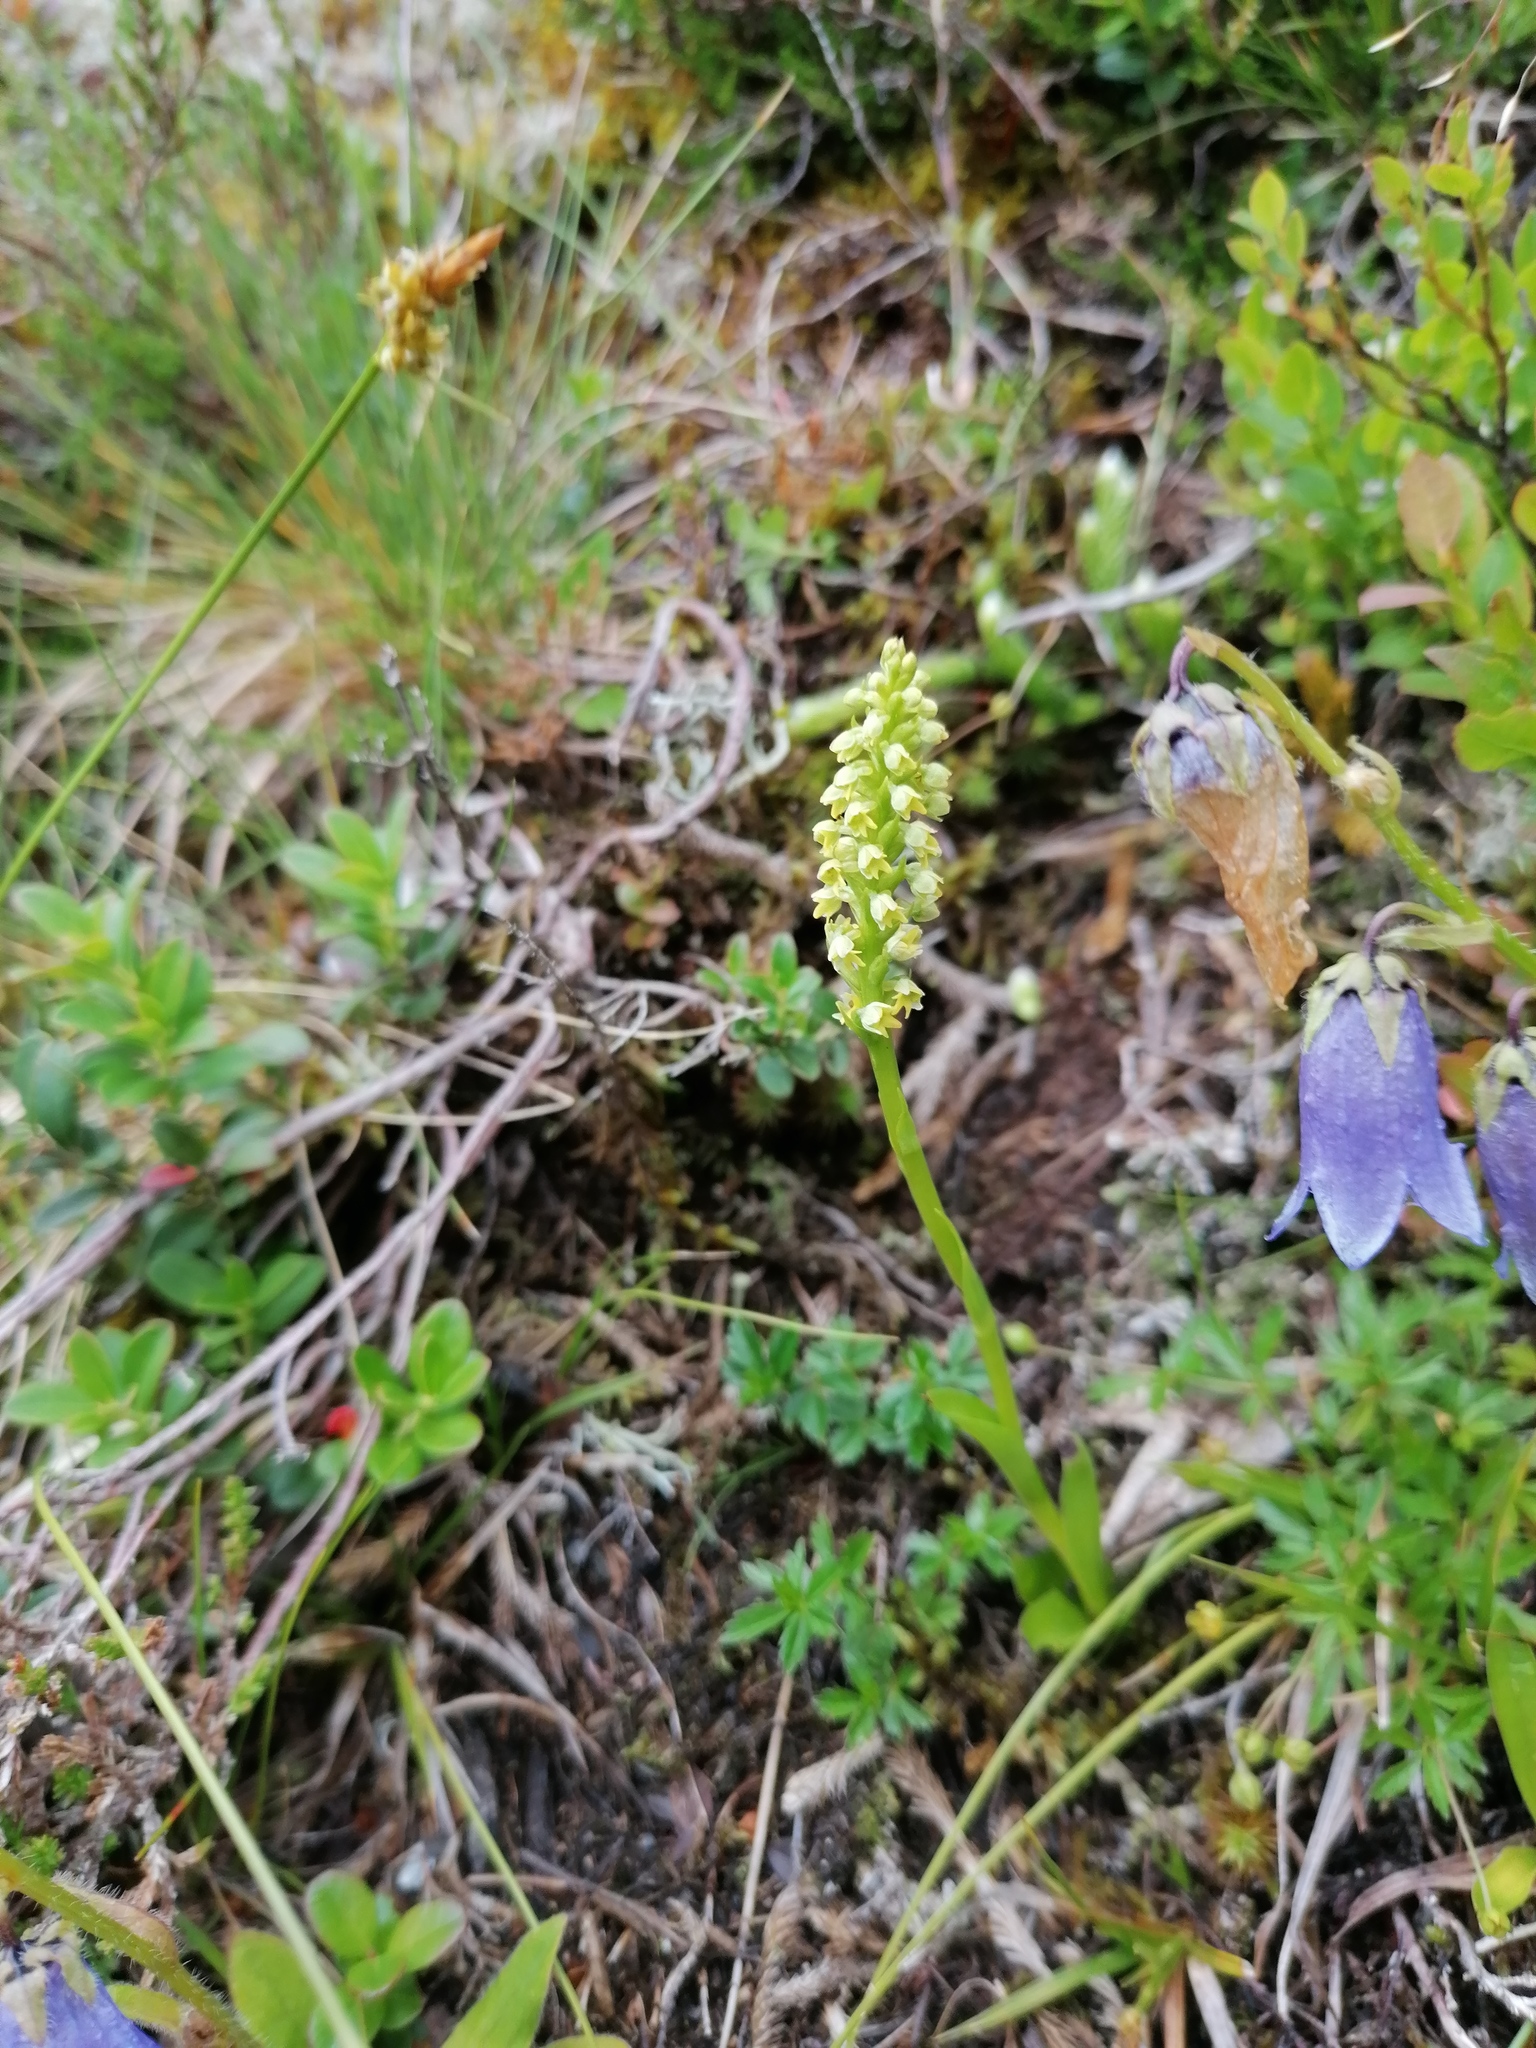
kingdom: Plantae
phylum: Tracheophyta
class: Liliopsida
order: Asparagales
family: Orchidaceae
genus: Pseudorchis
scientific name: Pseudorchis albida
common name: Small-white orchid
